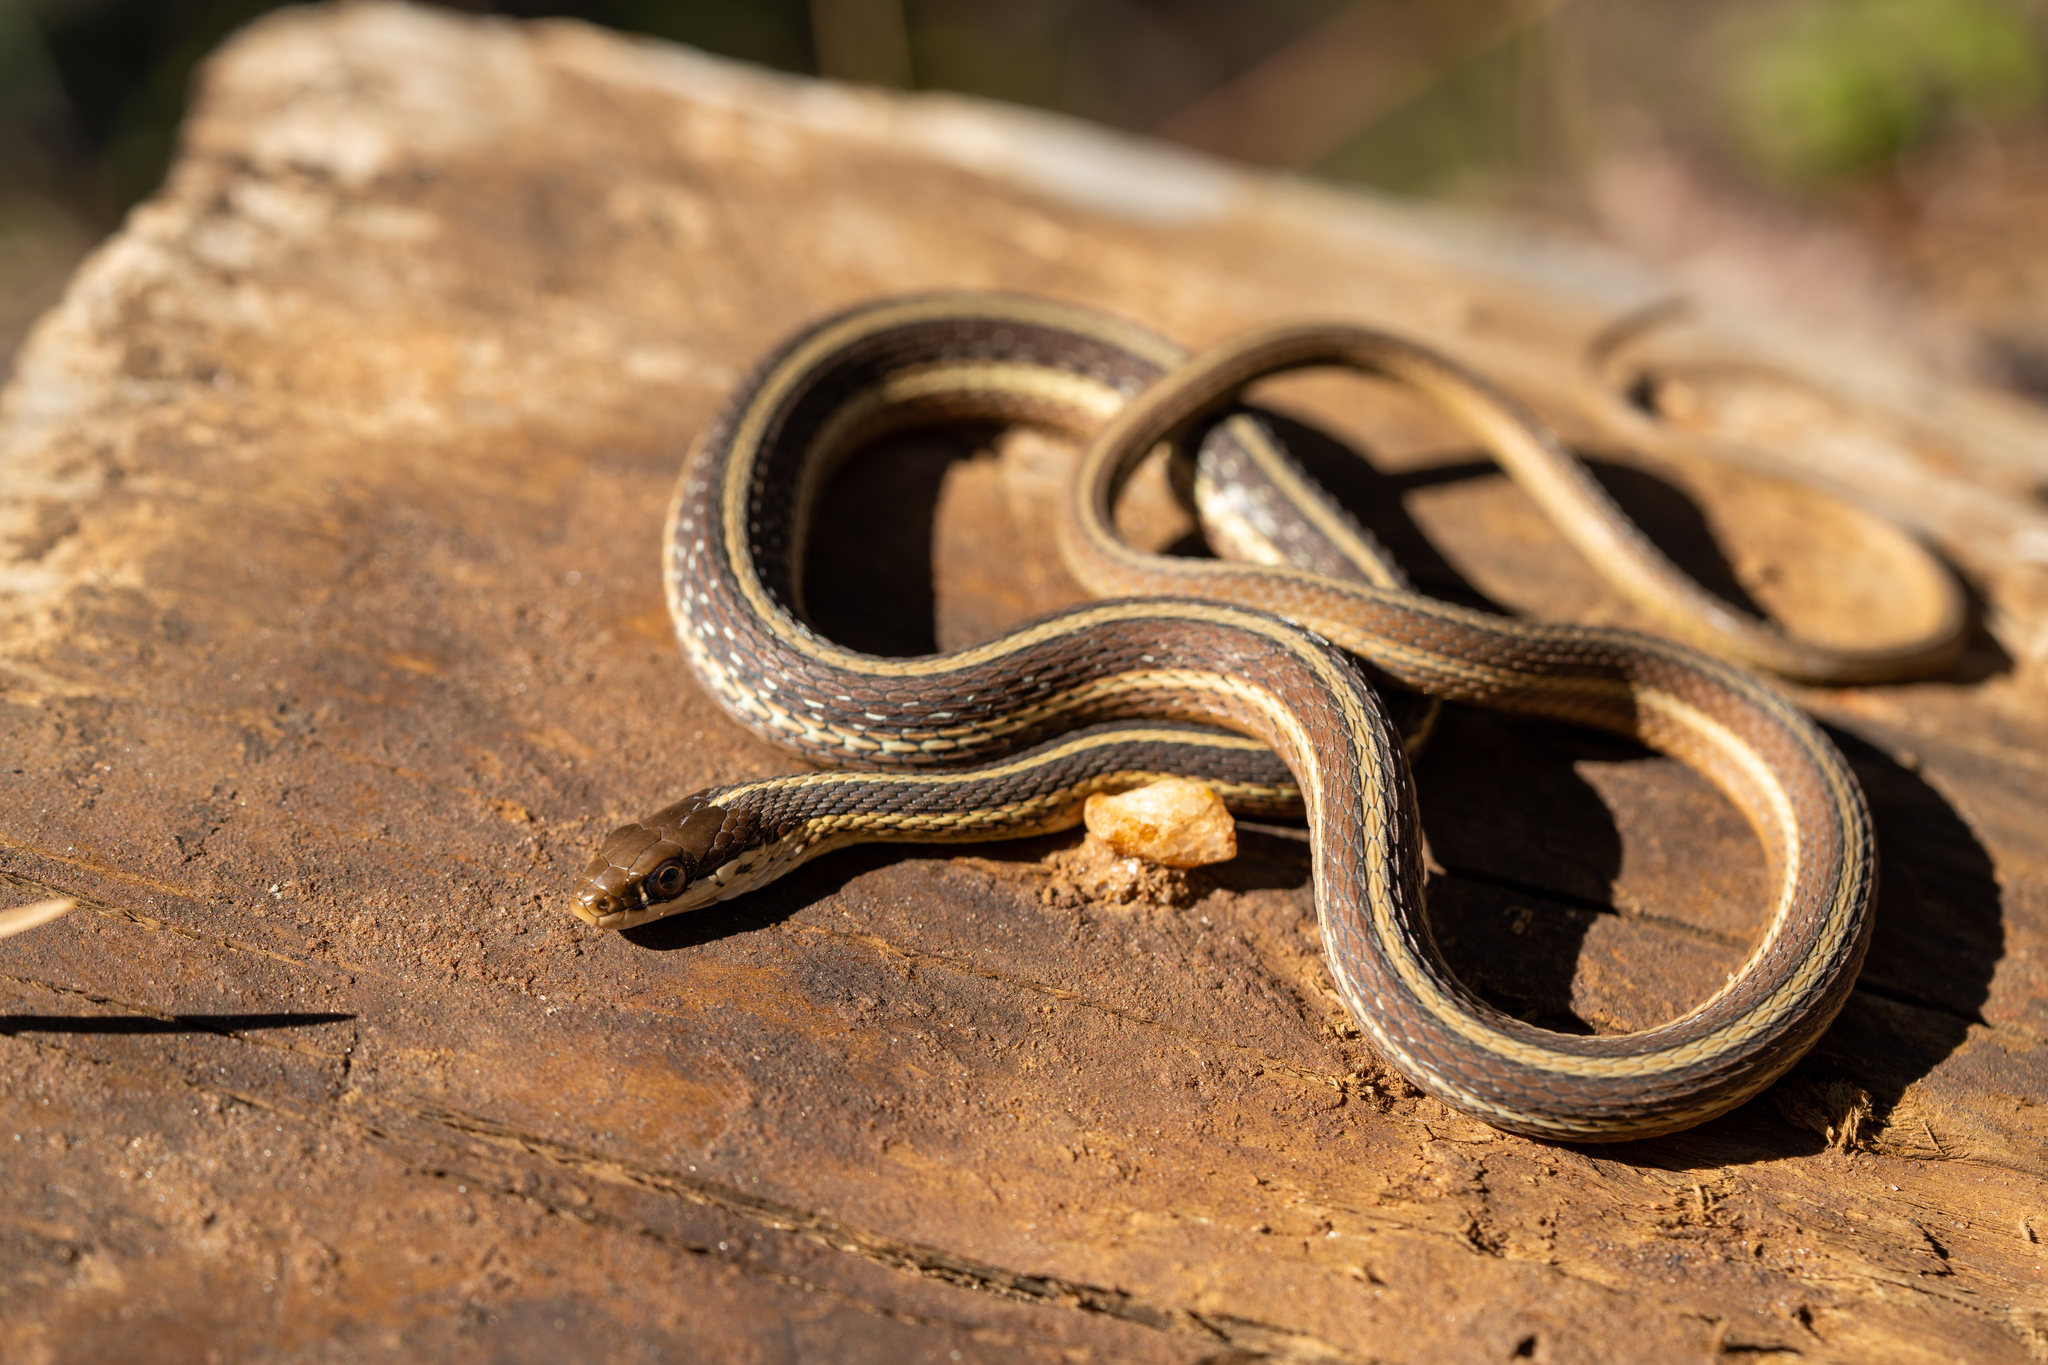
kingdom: Animalia
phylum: Chordata
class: Squamata
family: Colubridae
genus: Thamnophis
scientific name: Thamnophis saurita
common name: Eastern ribbonsnake
